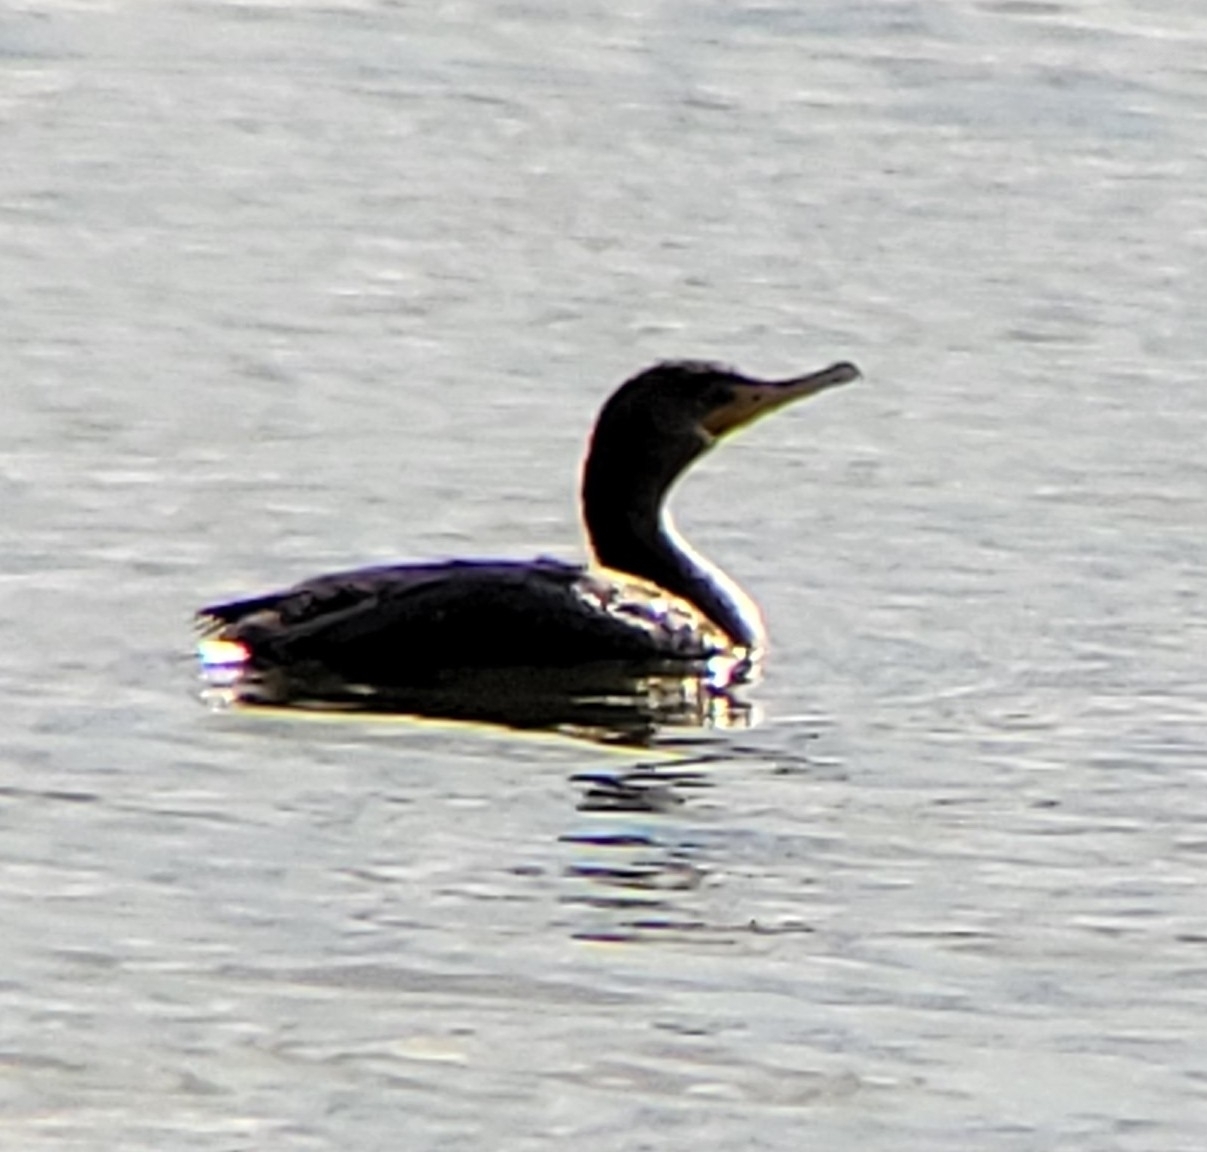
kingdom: Animalia
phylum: Chordata
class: Aves
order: Suliformes
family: Phalacrocoracidae
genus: Phalacrocorax
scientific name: Phalacrocorax auritus
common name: Double-crested cormorant
